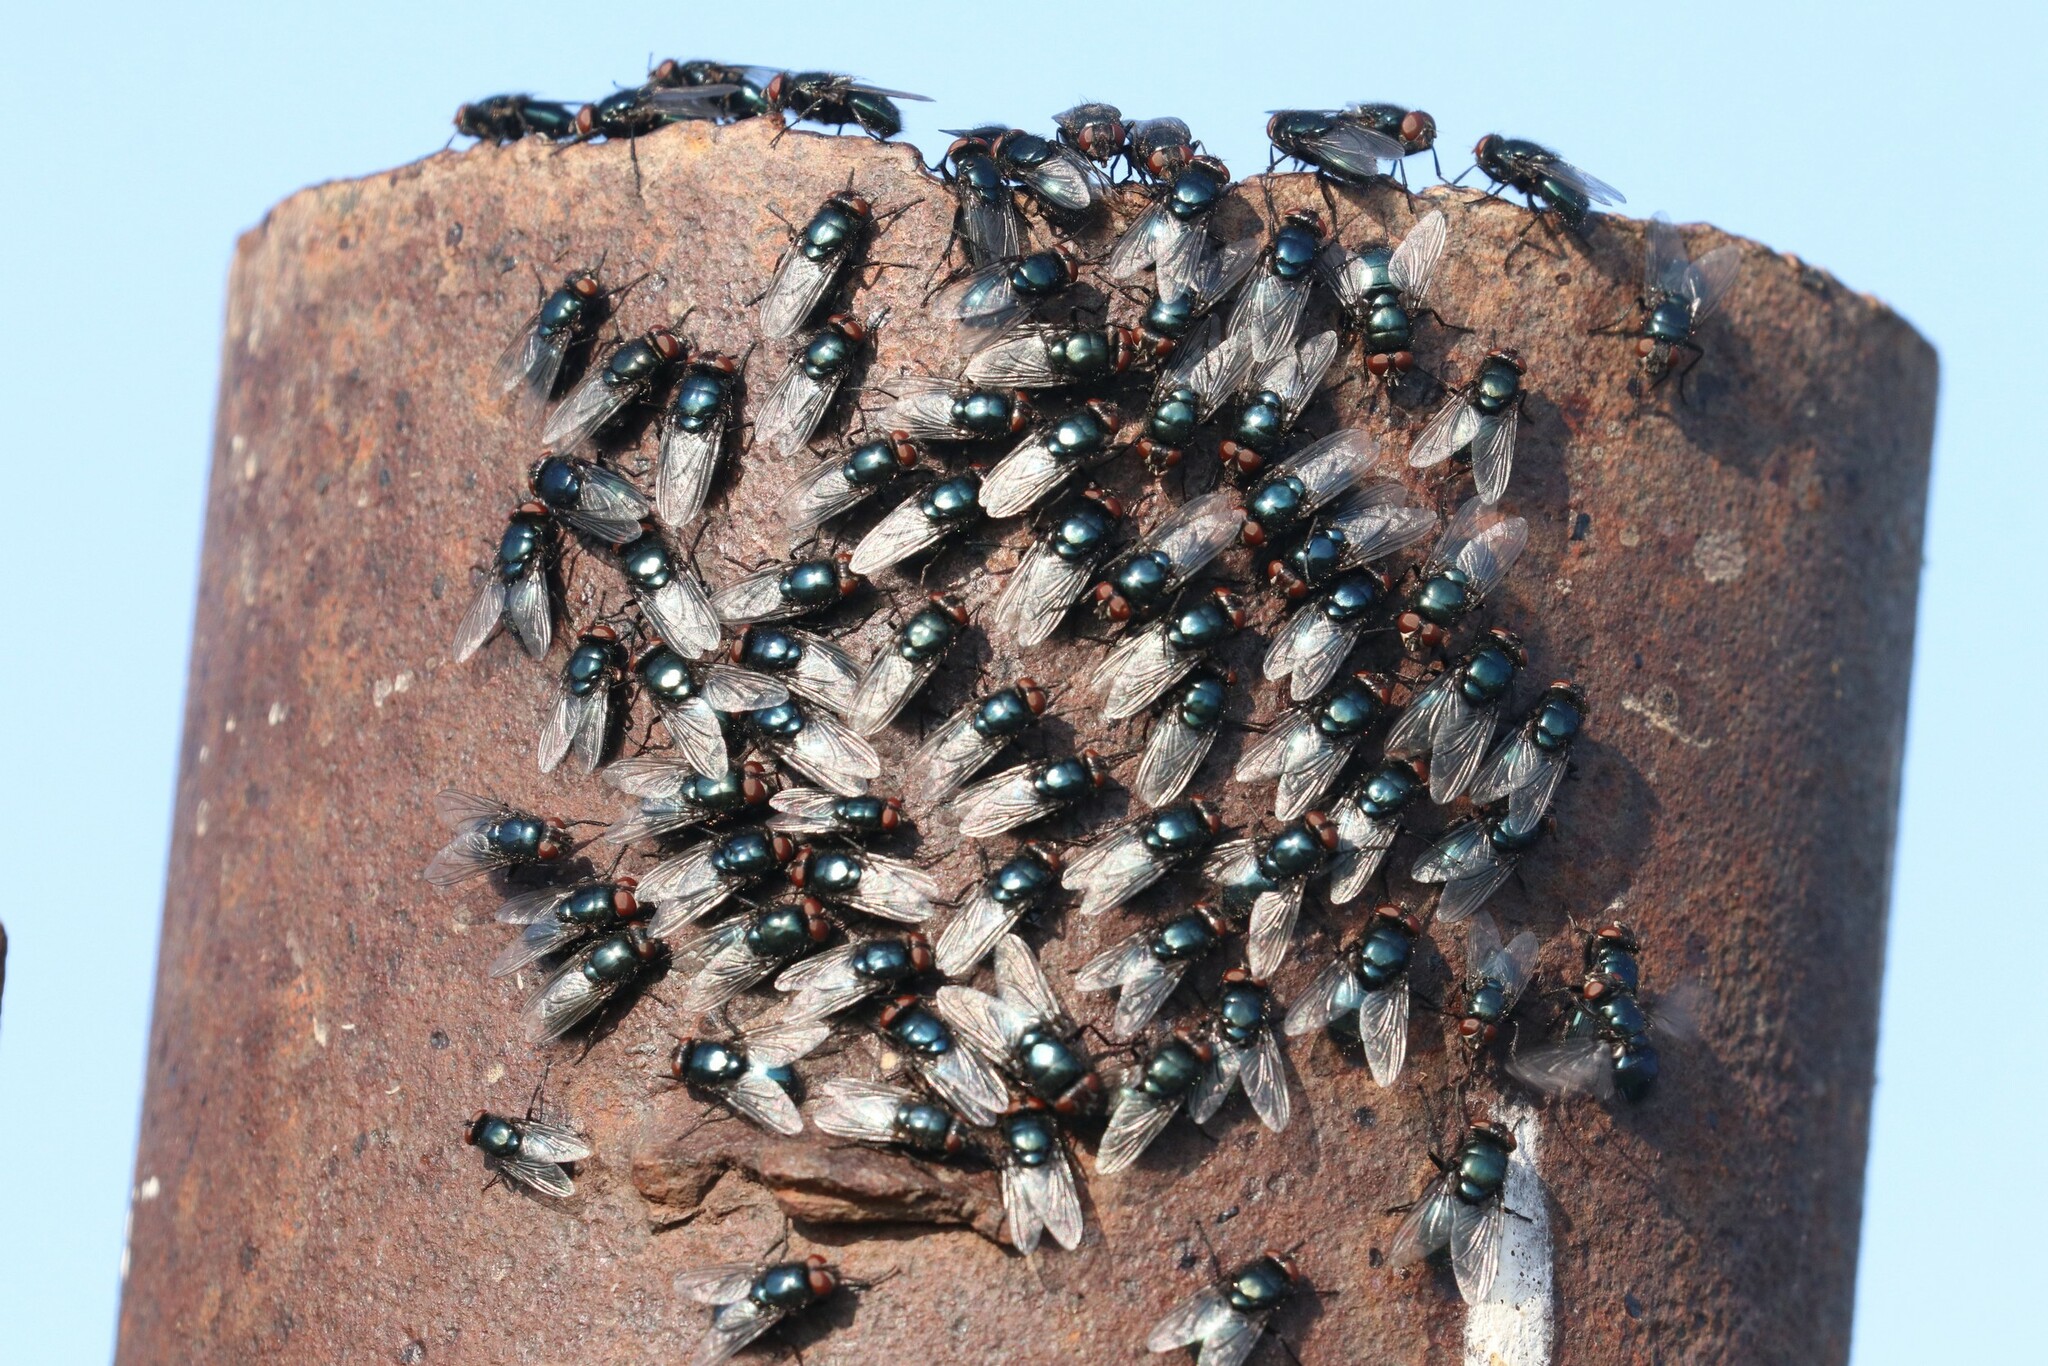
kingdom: Animalia
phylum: Arthropoda
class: Insecta
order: Diptera
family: Calliphoridae
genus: Protophormia
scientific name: Protophormia terraenovae
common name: Blackbottle
